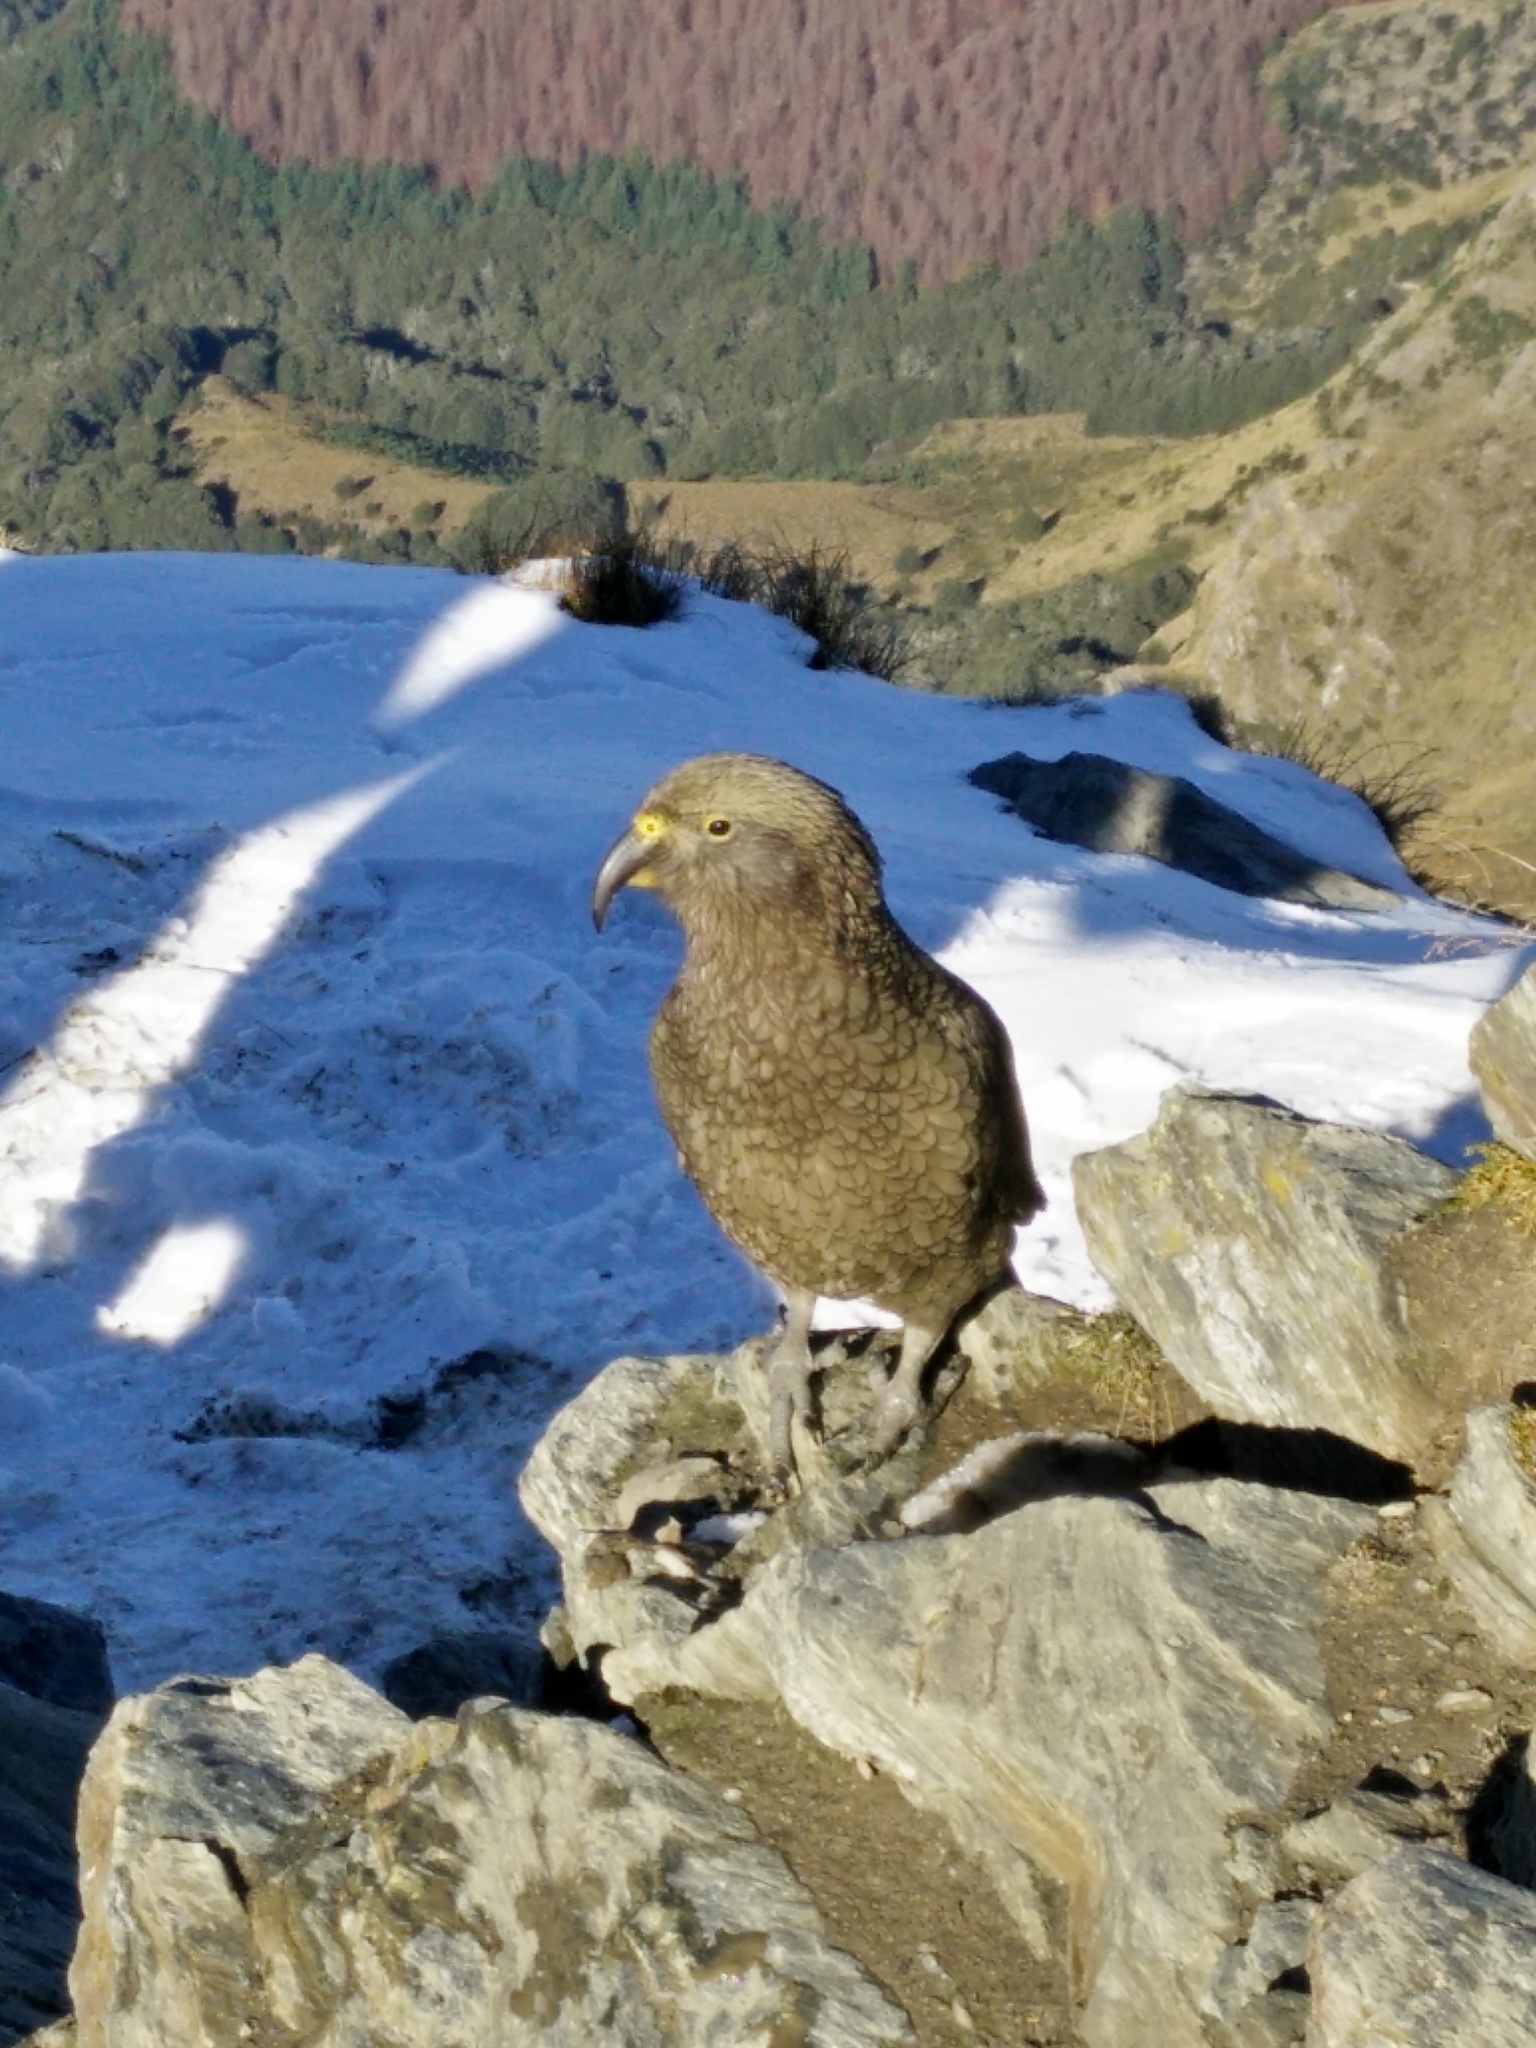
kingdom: Animalia
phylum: Chordata
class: Aves
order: Psittaciformes
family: Psittacidae
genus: Nestor
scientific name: Nestor notabilis
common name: Kea
